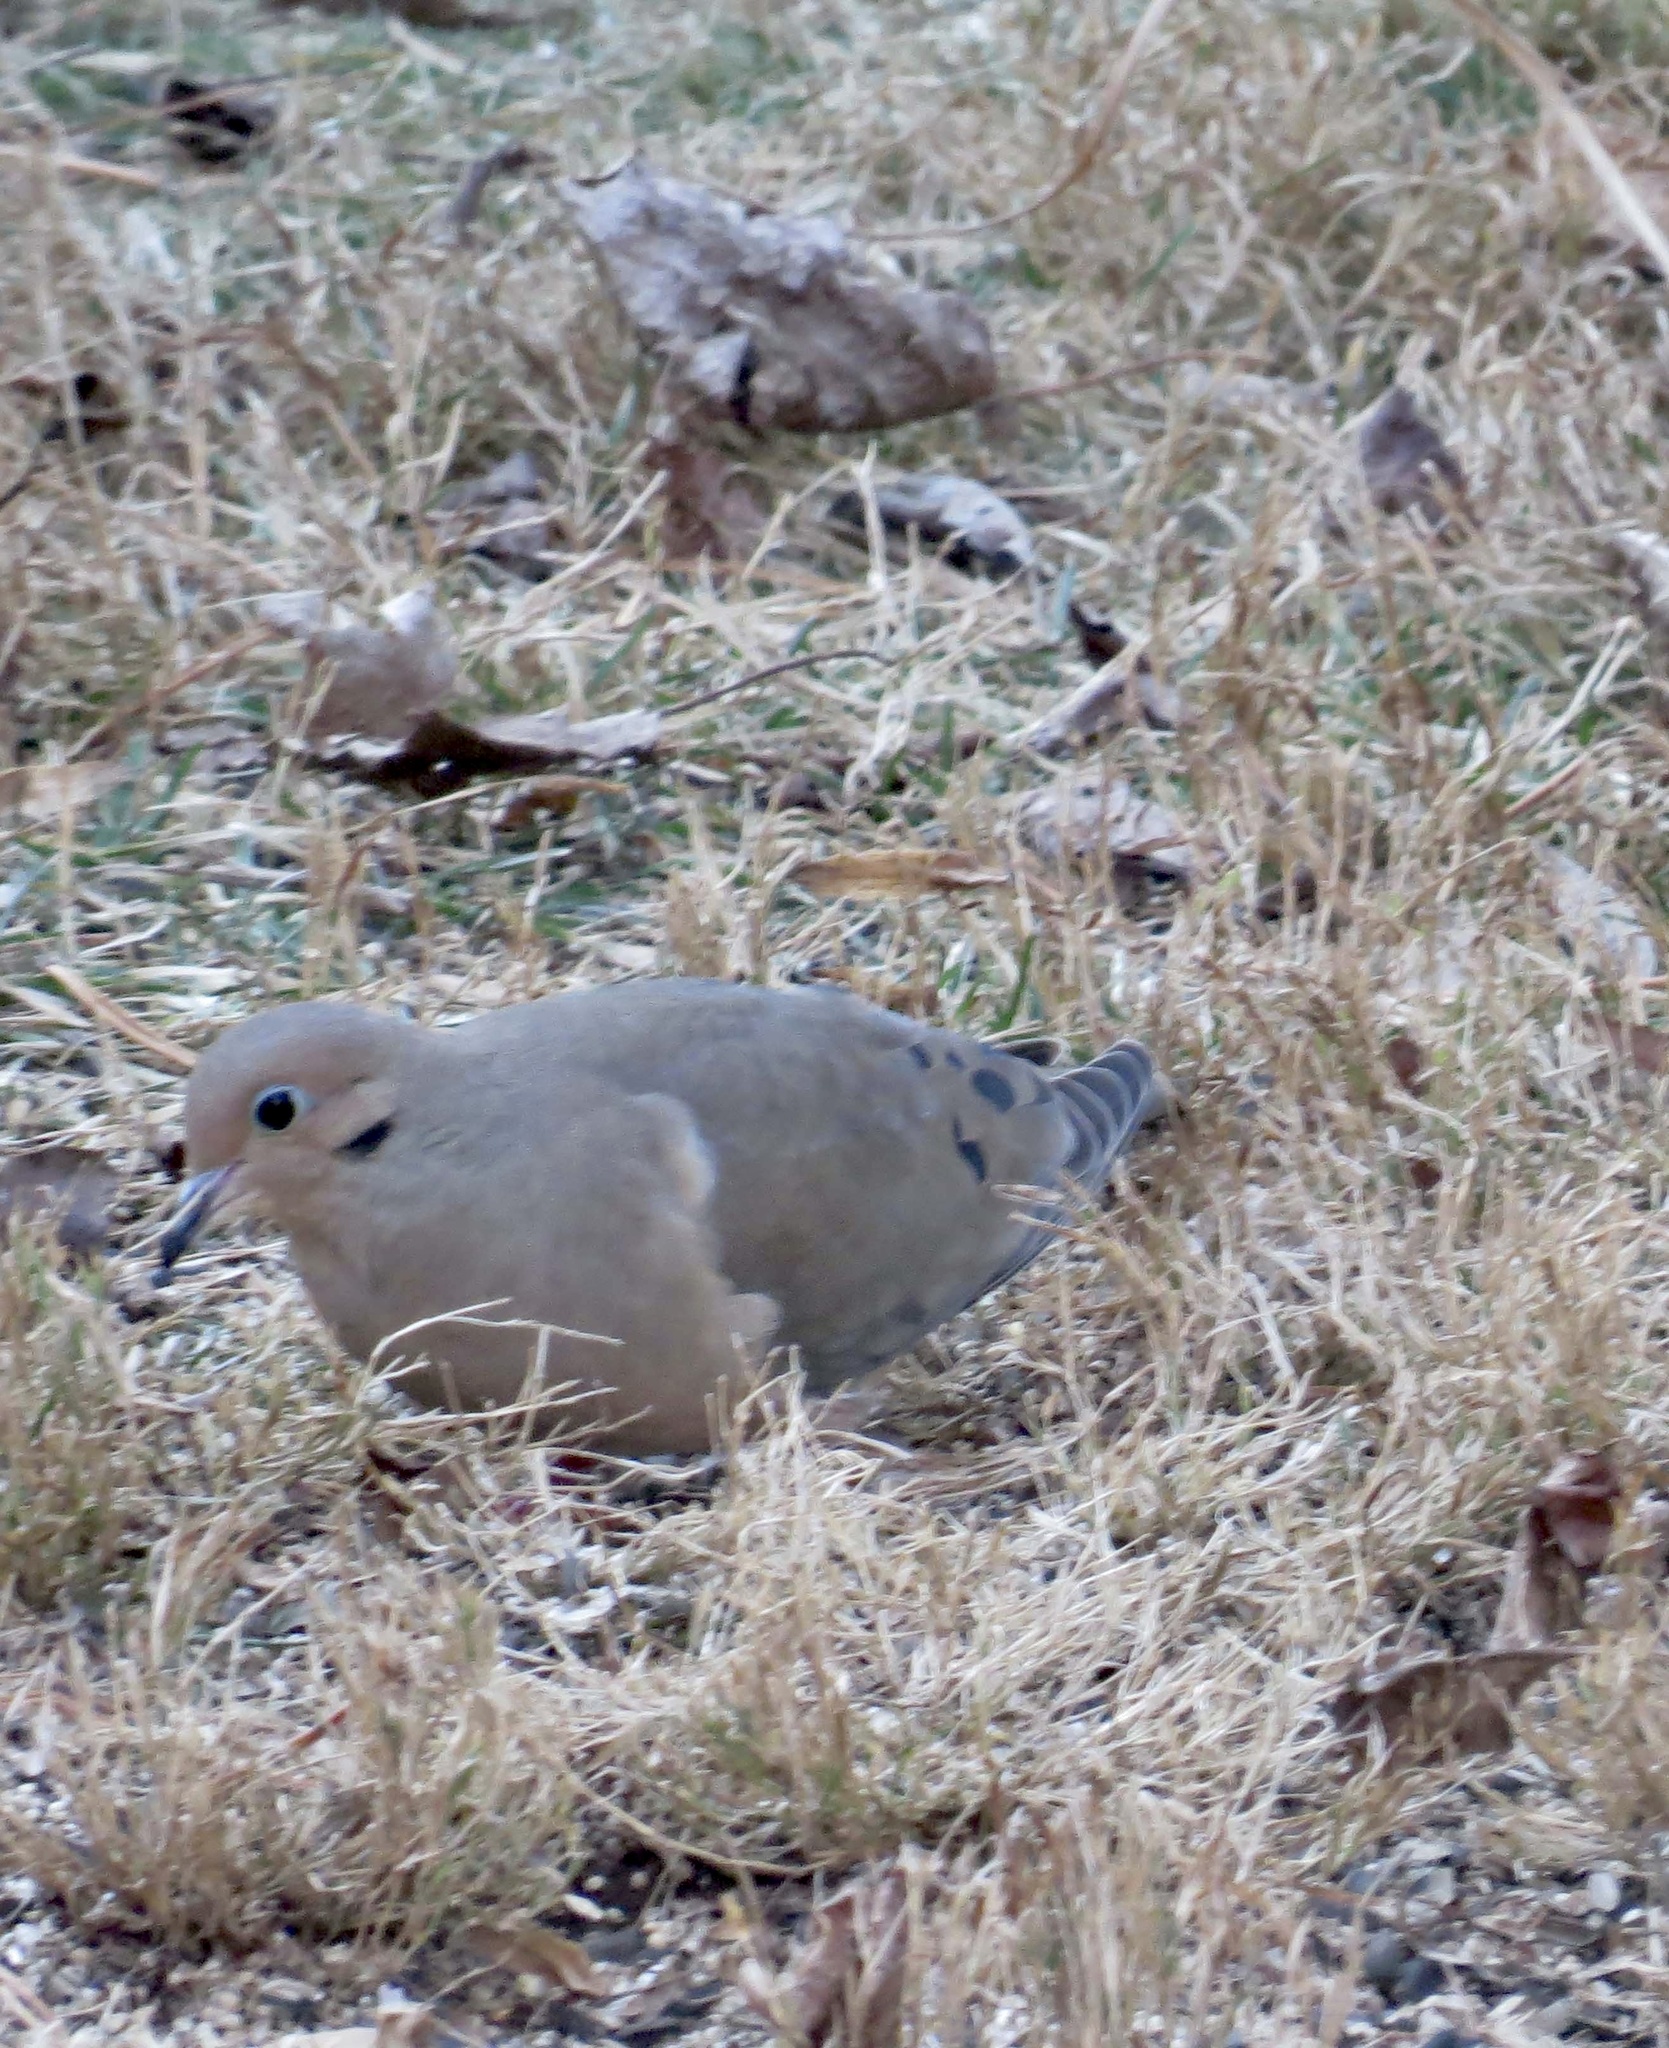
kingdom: Animalia
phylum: Chordata
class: Aves
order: Columbiformes
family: Columbidae
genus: Zenaida
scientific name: Zenaida macroura
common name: Mourning dove
